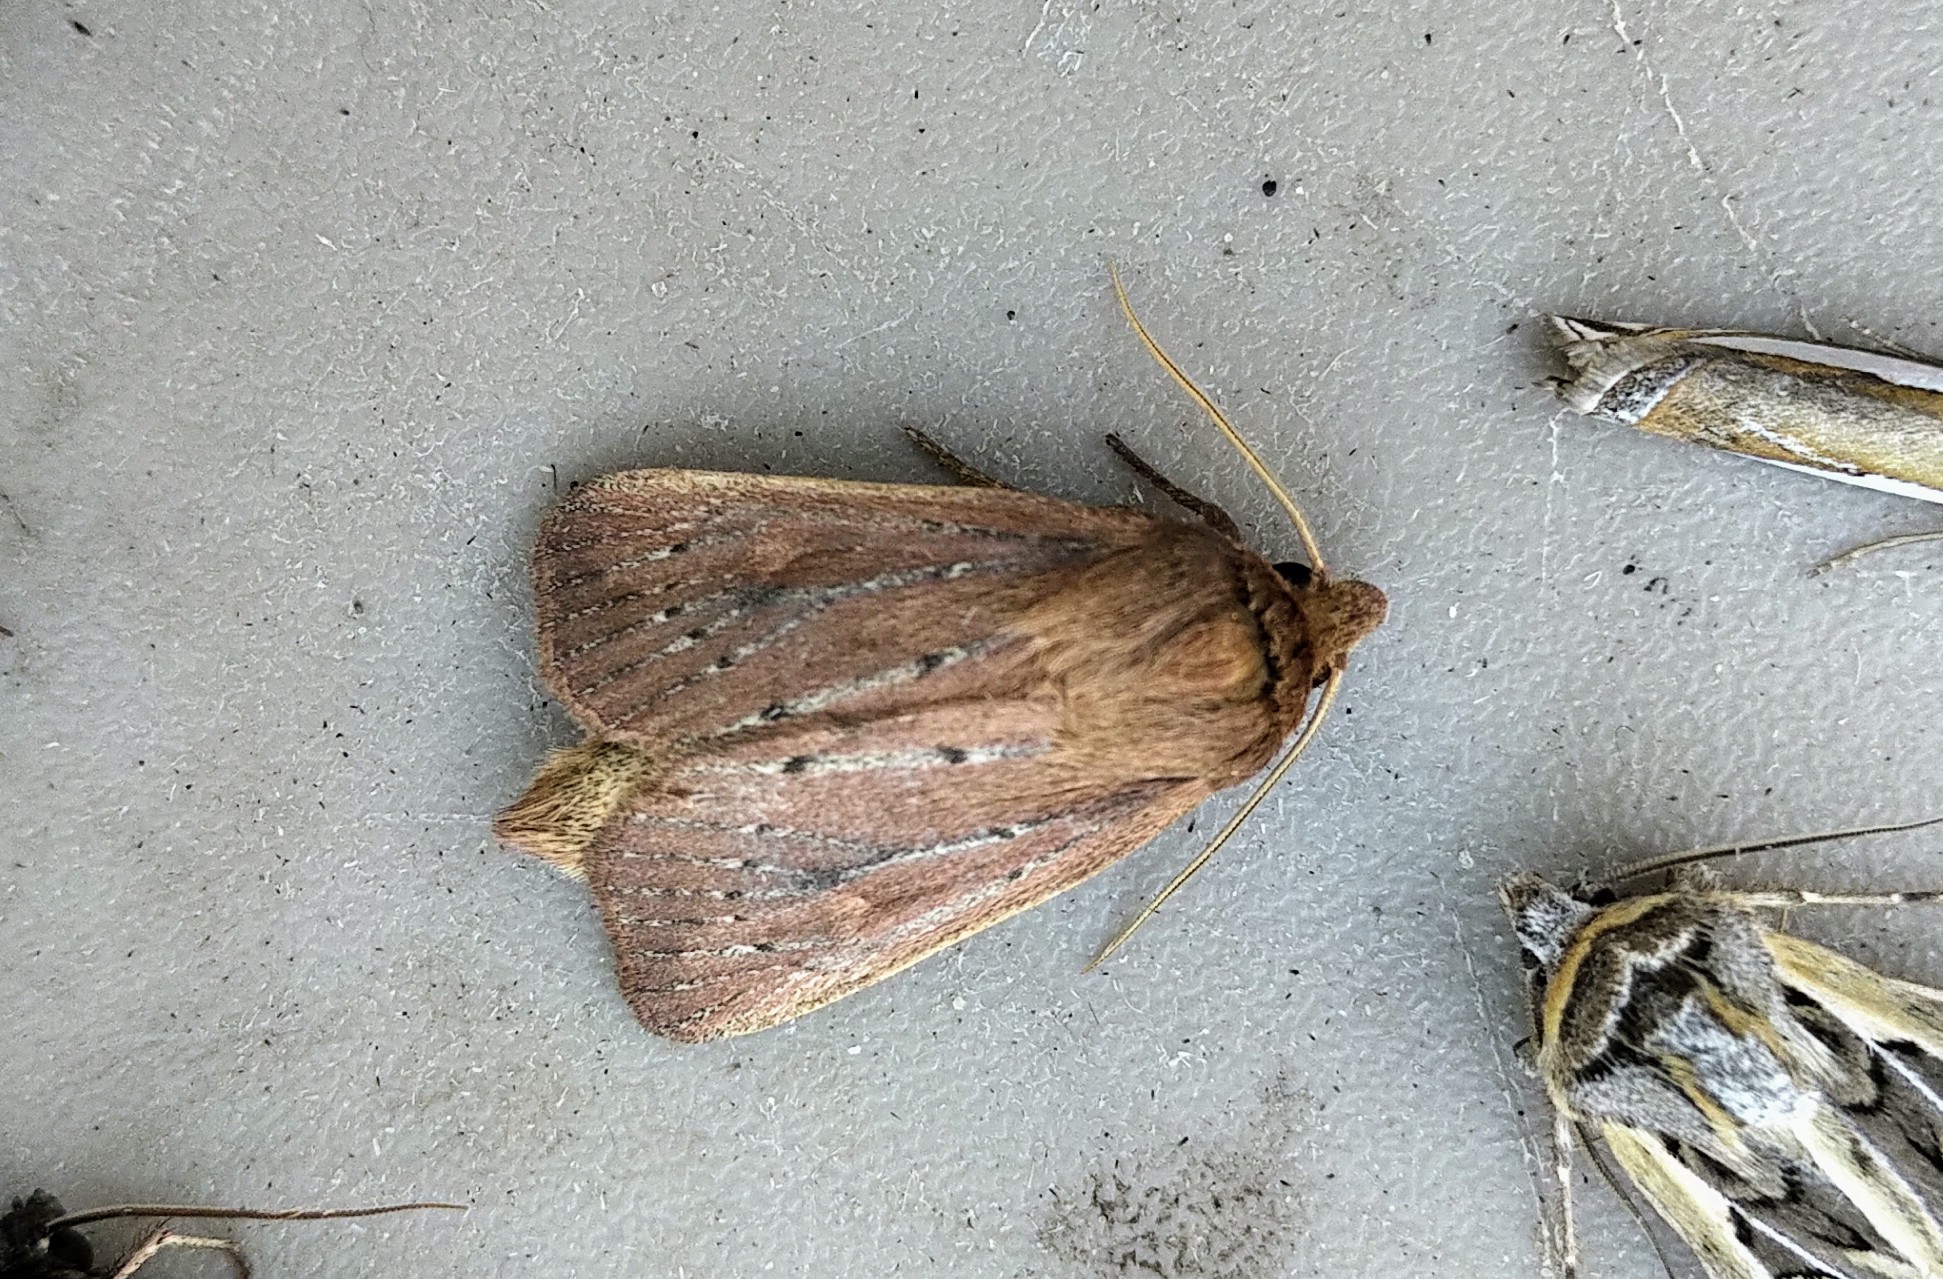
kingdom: Animalia
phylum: Arthropoda
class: Insecta
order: Lepidoptera
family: Noctuidae
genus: Globia
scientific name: Globia subflava
